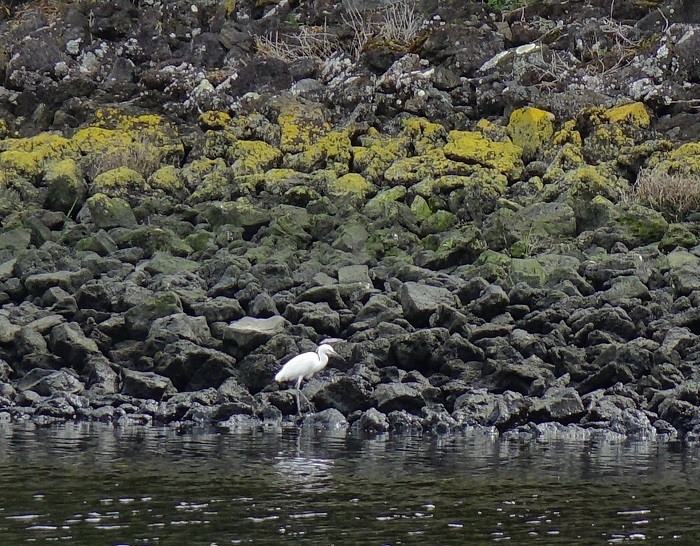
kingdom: Animalia
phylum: Chordata
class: Aves
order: Pelecaniformes
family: Ardeidae
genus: Egretta
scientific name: Egretta garzetta
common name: Little egret
